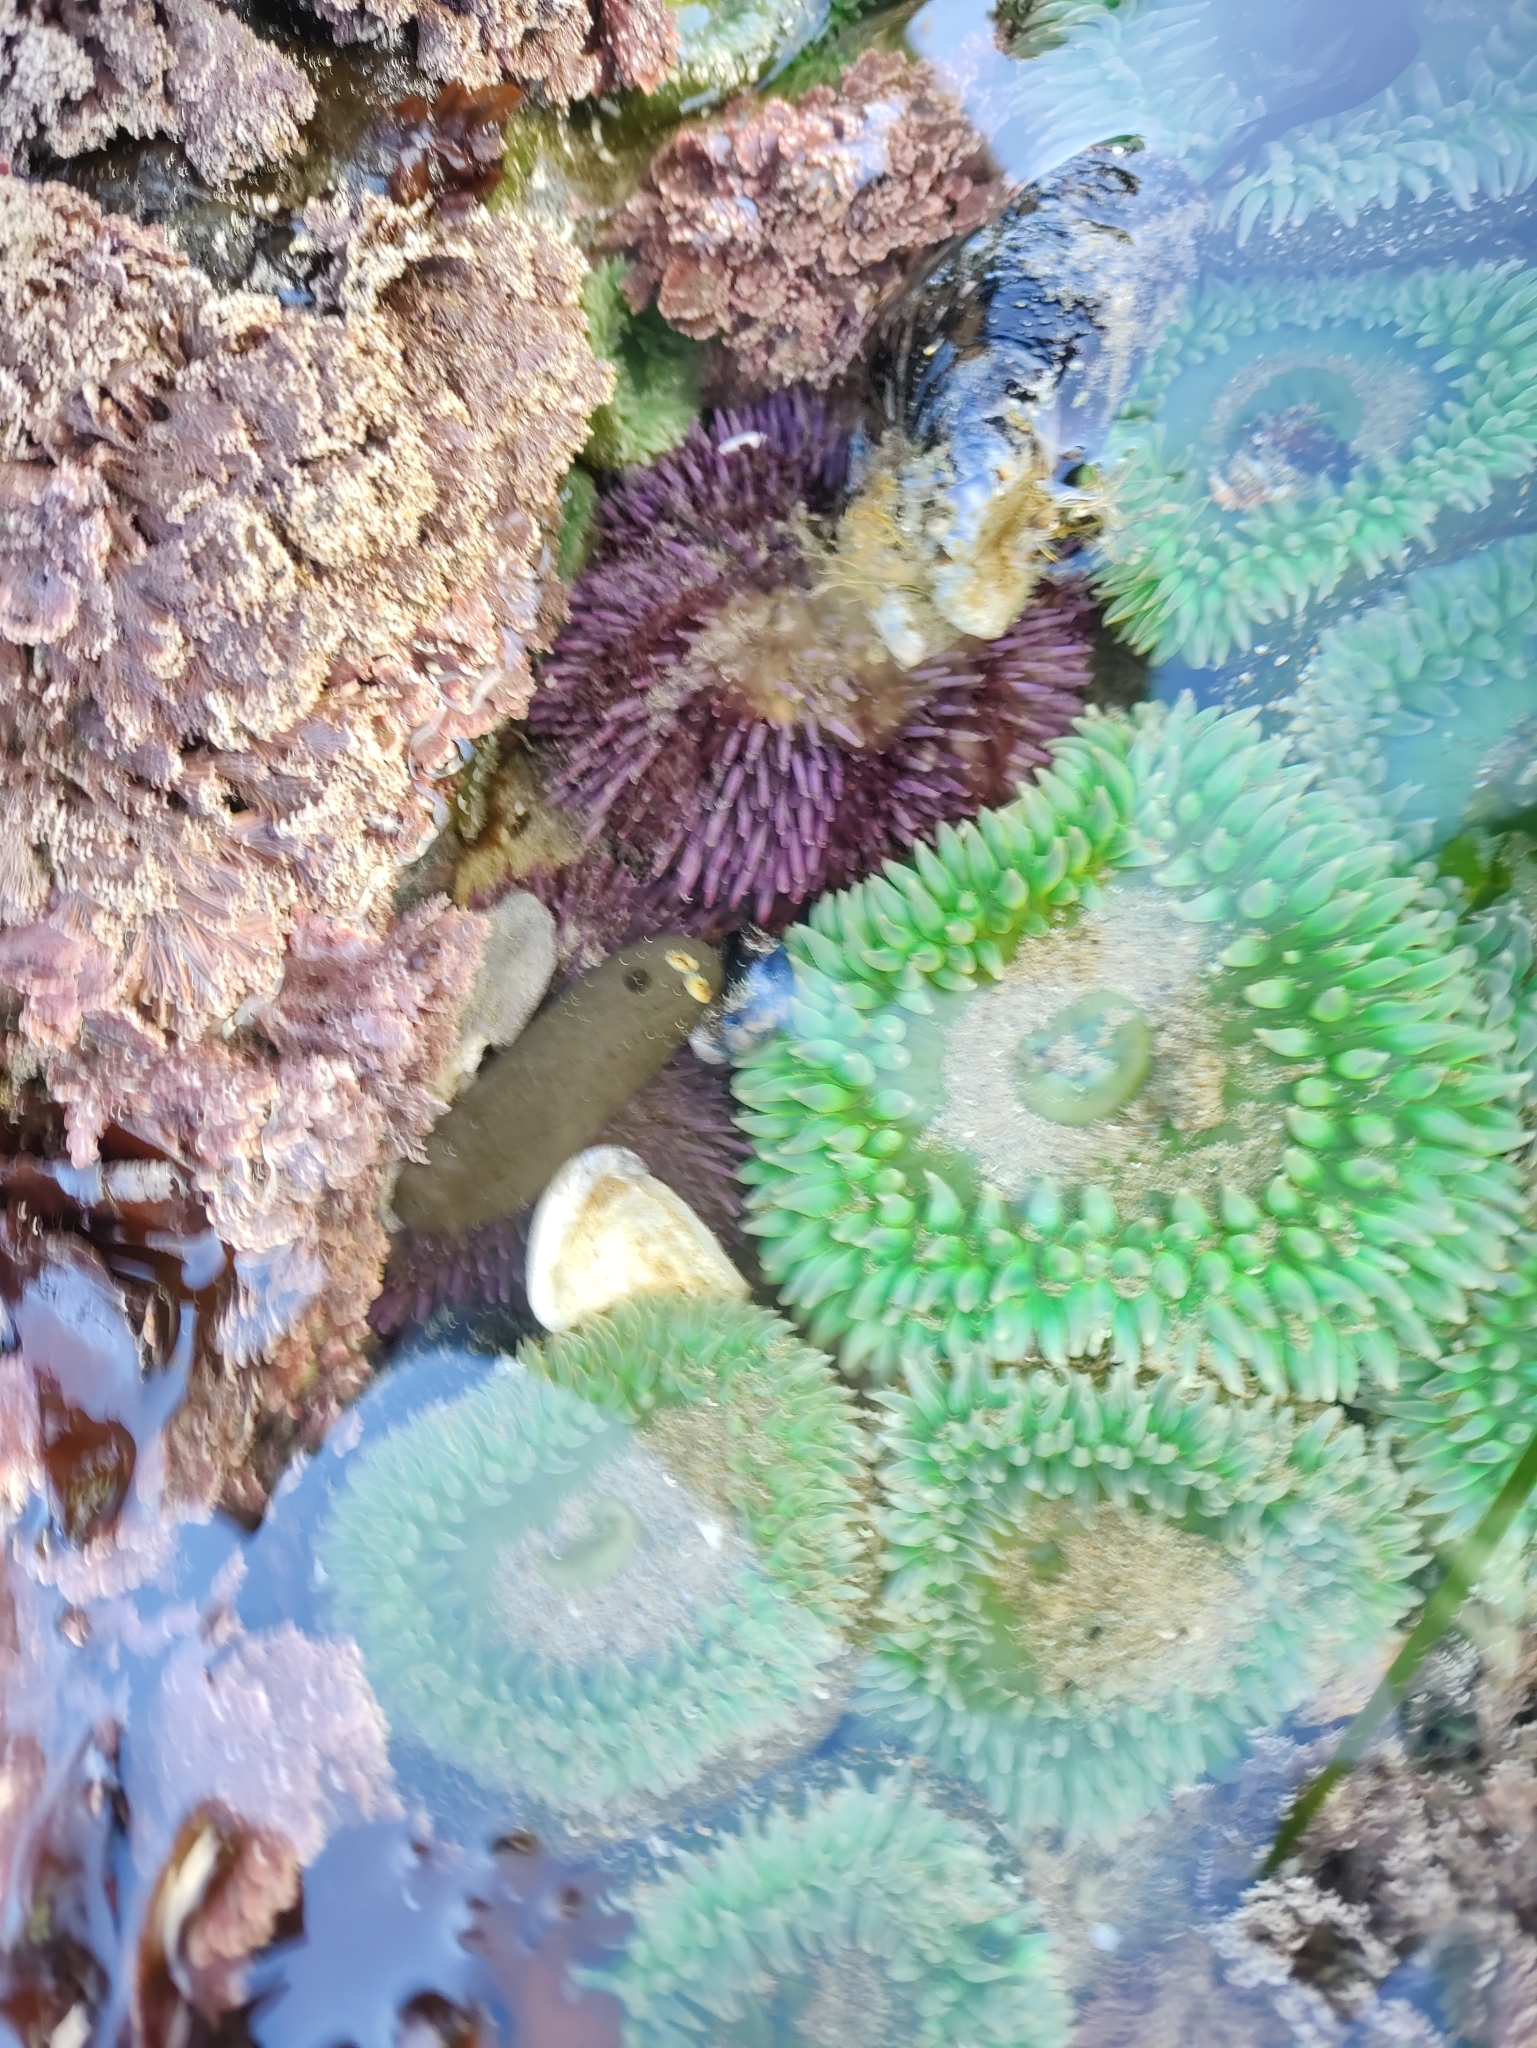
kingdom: Animalia
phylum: Echinodermata
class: Echinoidea
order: Camarodonta
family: Strongylocentrotidae
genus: Strongylocentrotus
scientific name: Strongylocentrotus purpuratus
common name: Purple sea urchin
